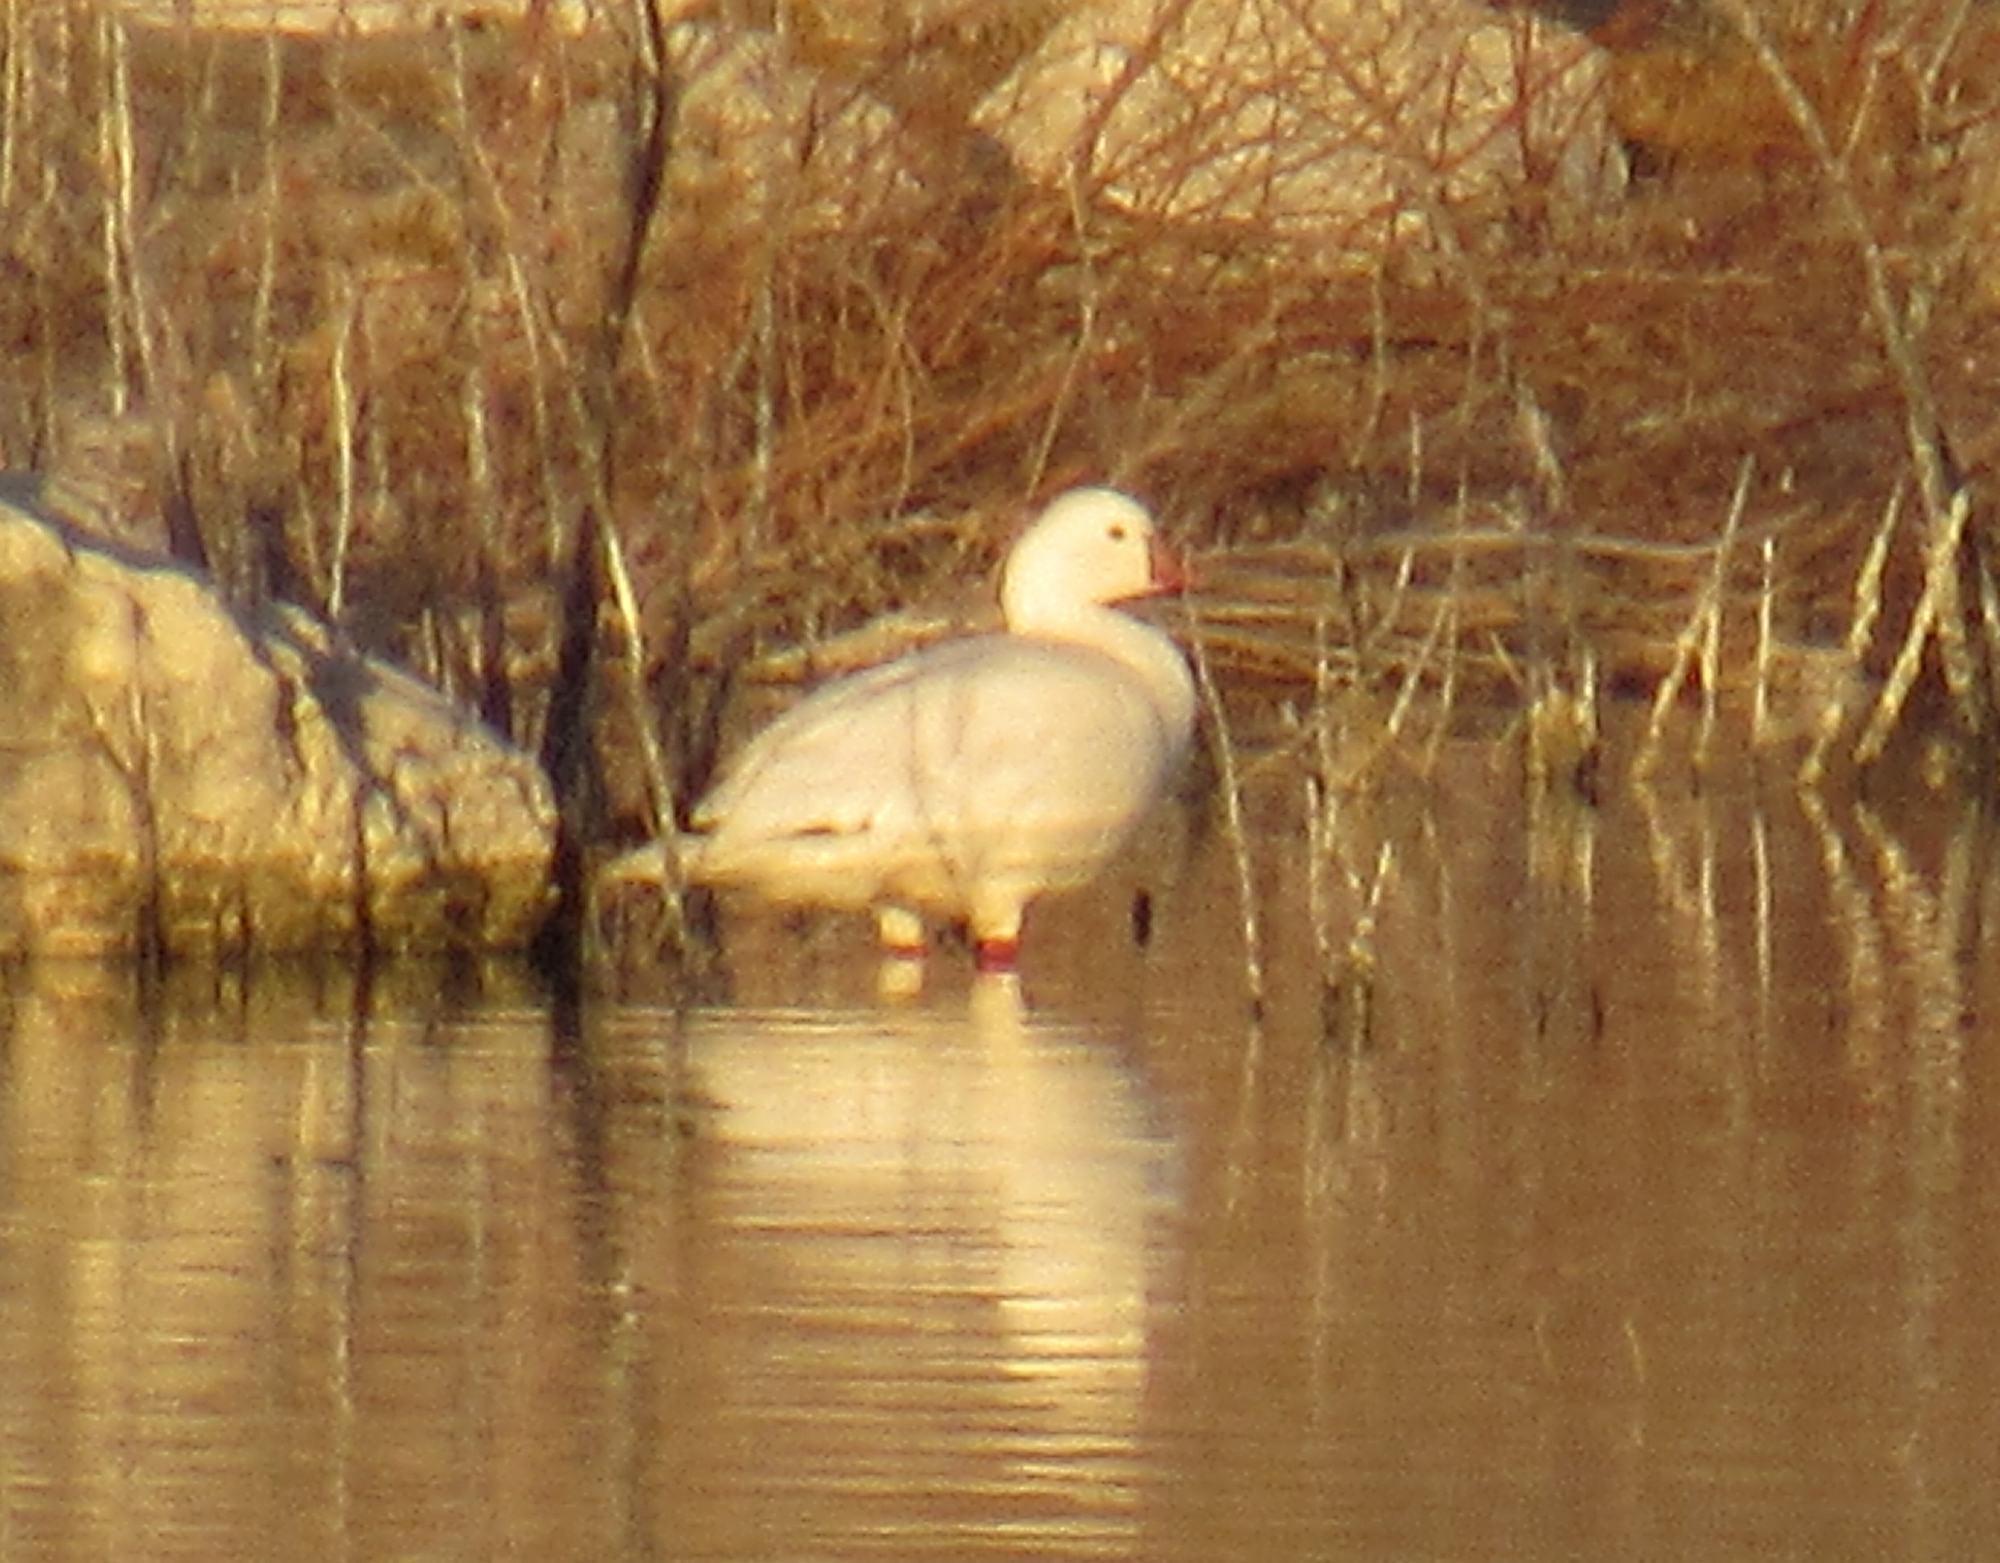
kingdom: Animalia
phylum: Chordata
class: Aves
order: Anseriformes
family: Anatidae
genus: Anser
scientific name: Anser rossii
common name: Ross's goose
